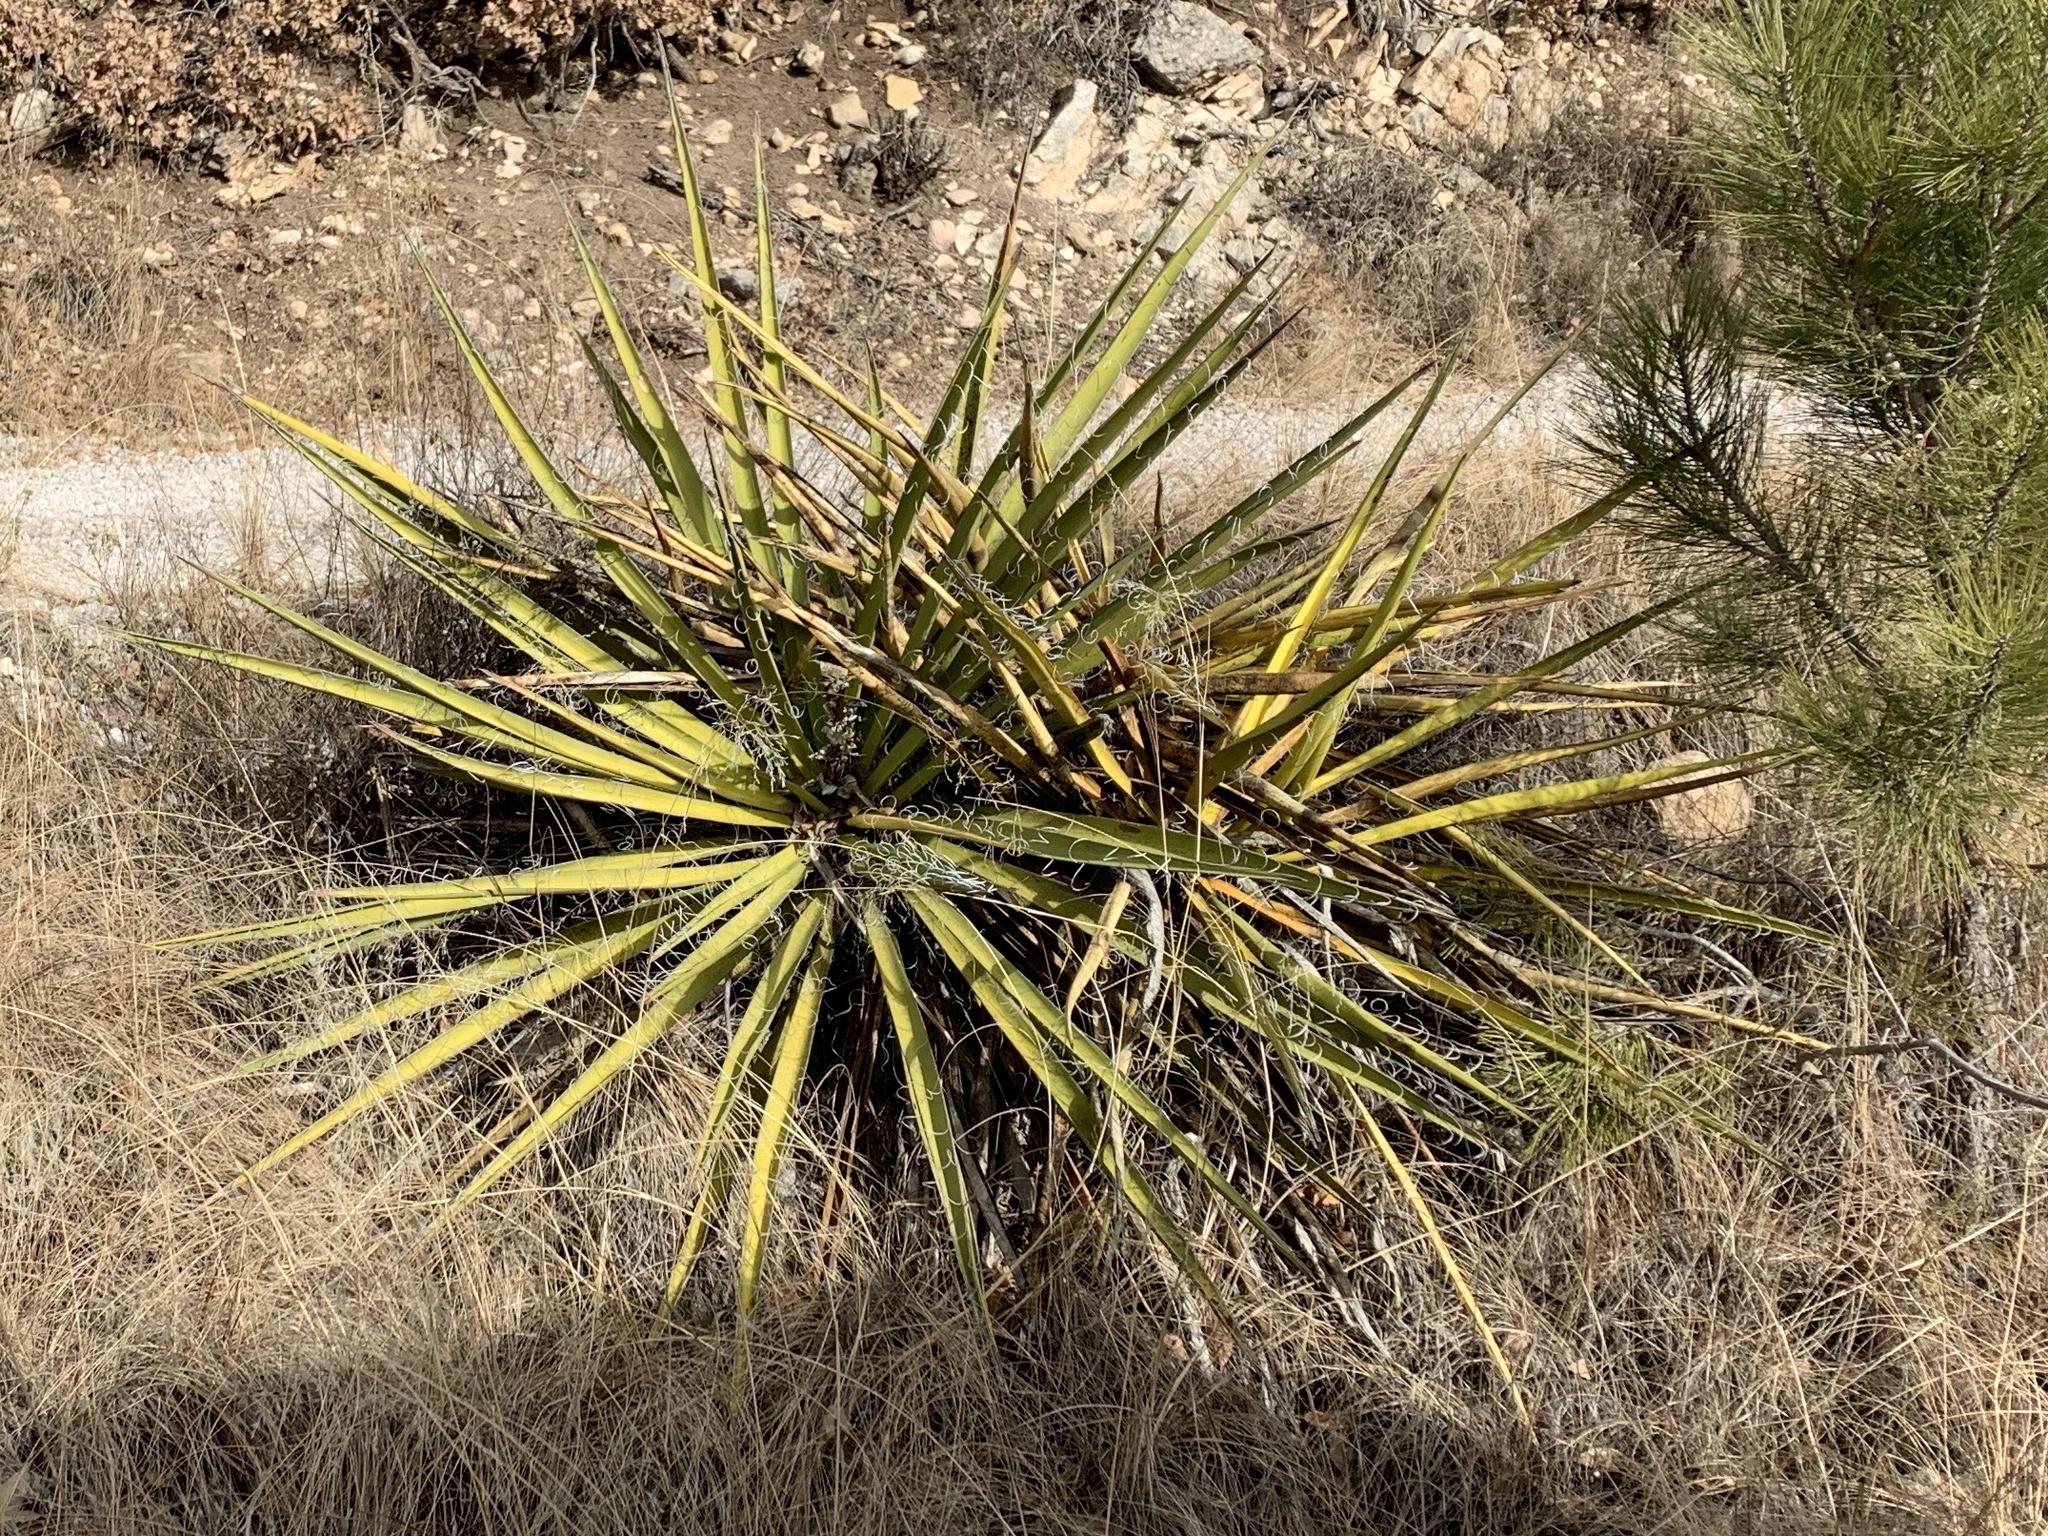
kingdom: Plantae
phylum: Tracheophyta
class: Liliopsida
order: Asparagales
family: Asparagaceae
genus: Yucca
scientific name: Yucca baccata
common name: Banana yucca
